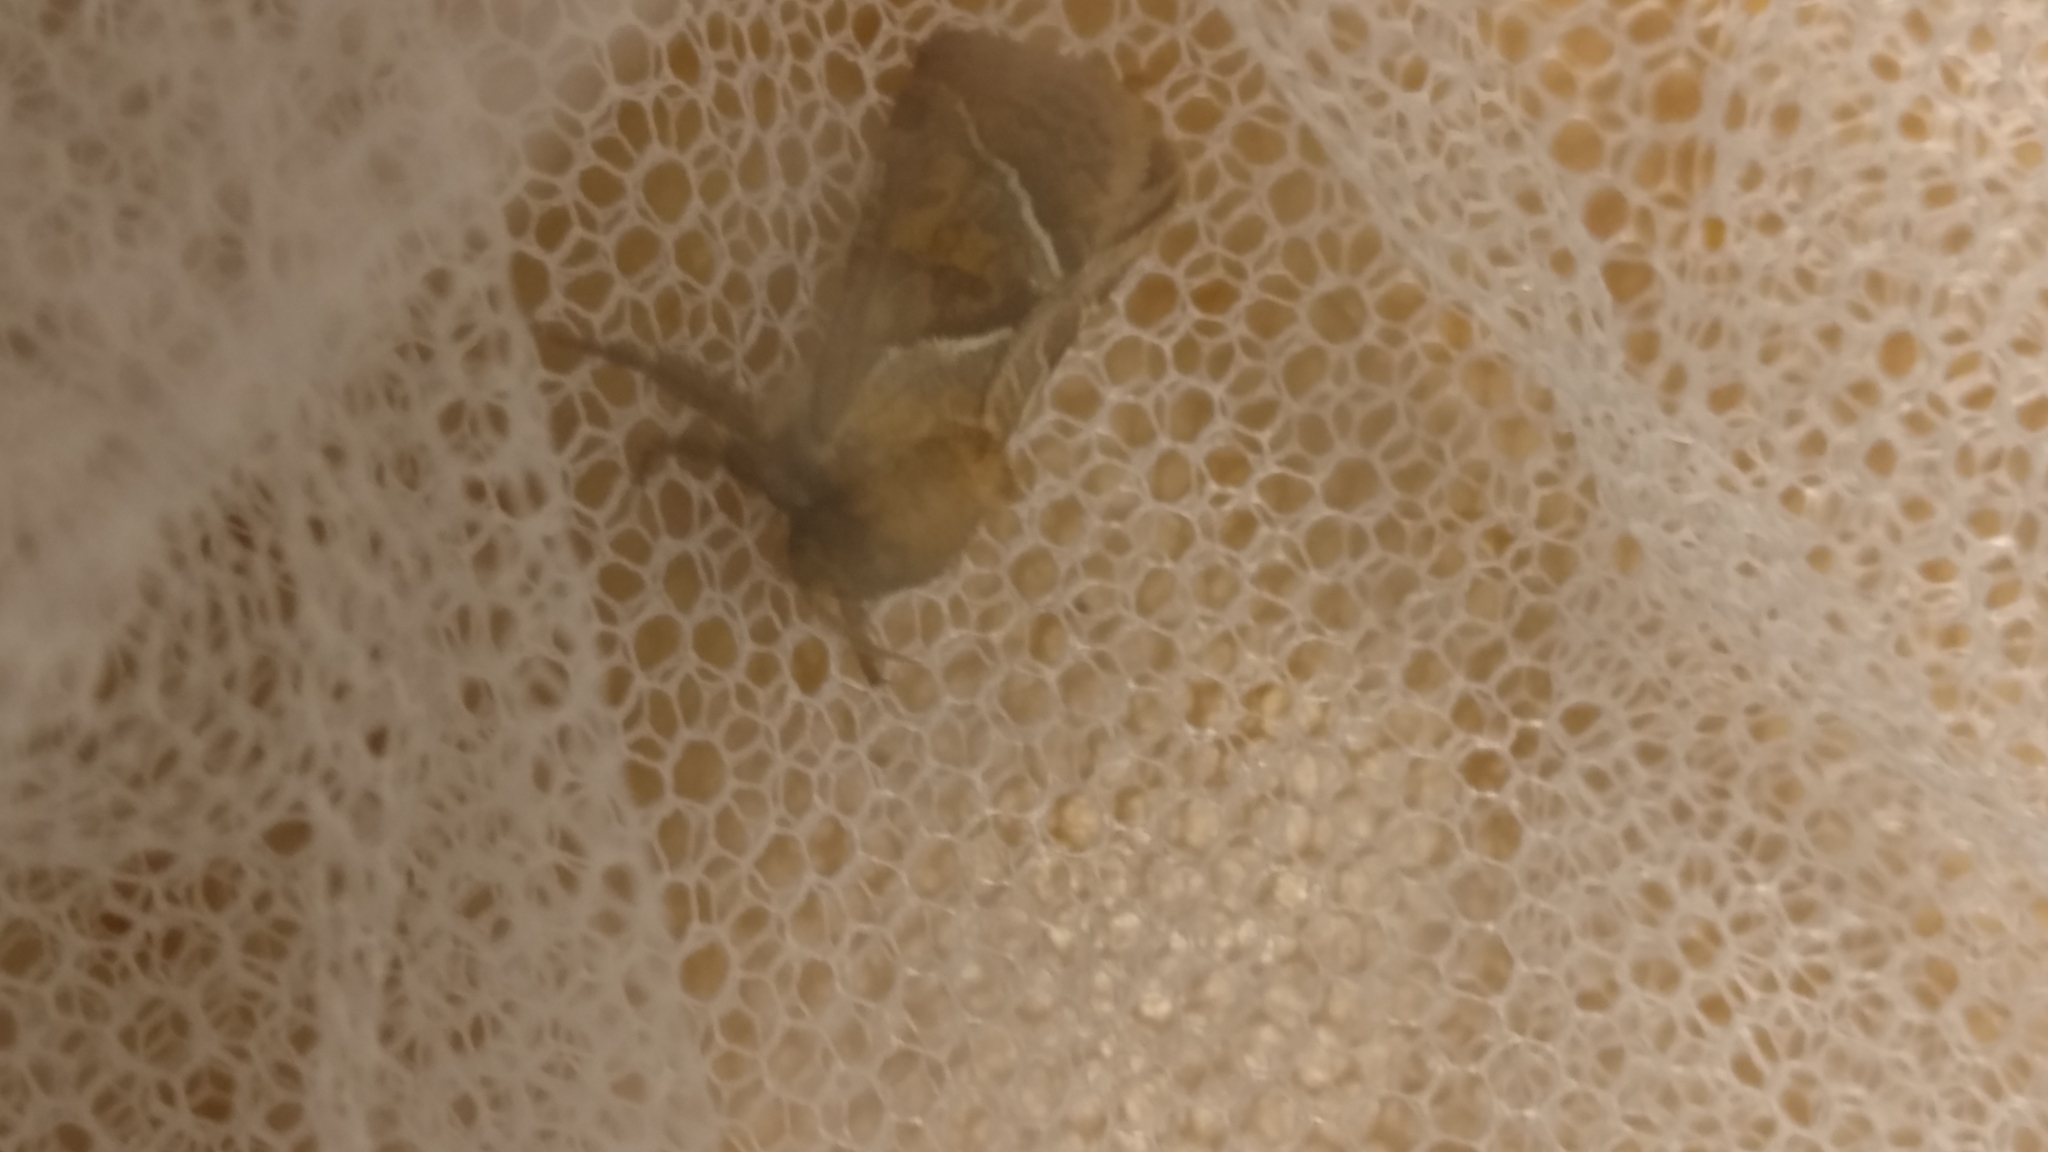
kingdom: Animalia
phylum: Arthropoda
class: Insecta
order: Lepidoptera
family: Hepialidae
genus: Triodia
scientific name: Triodia sylvina
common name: Orange swift
